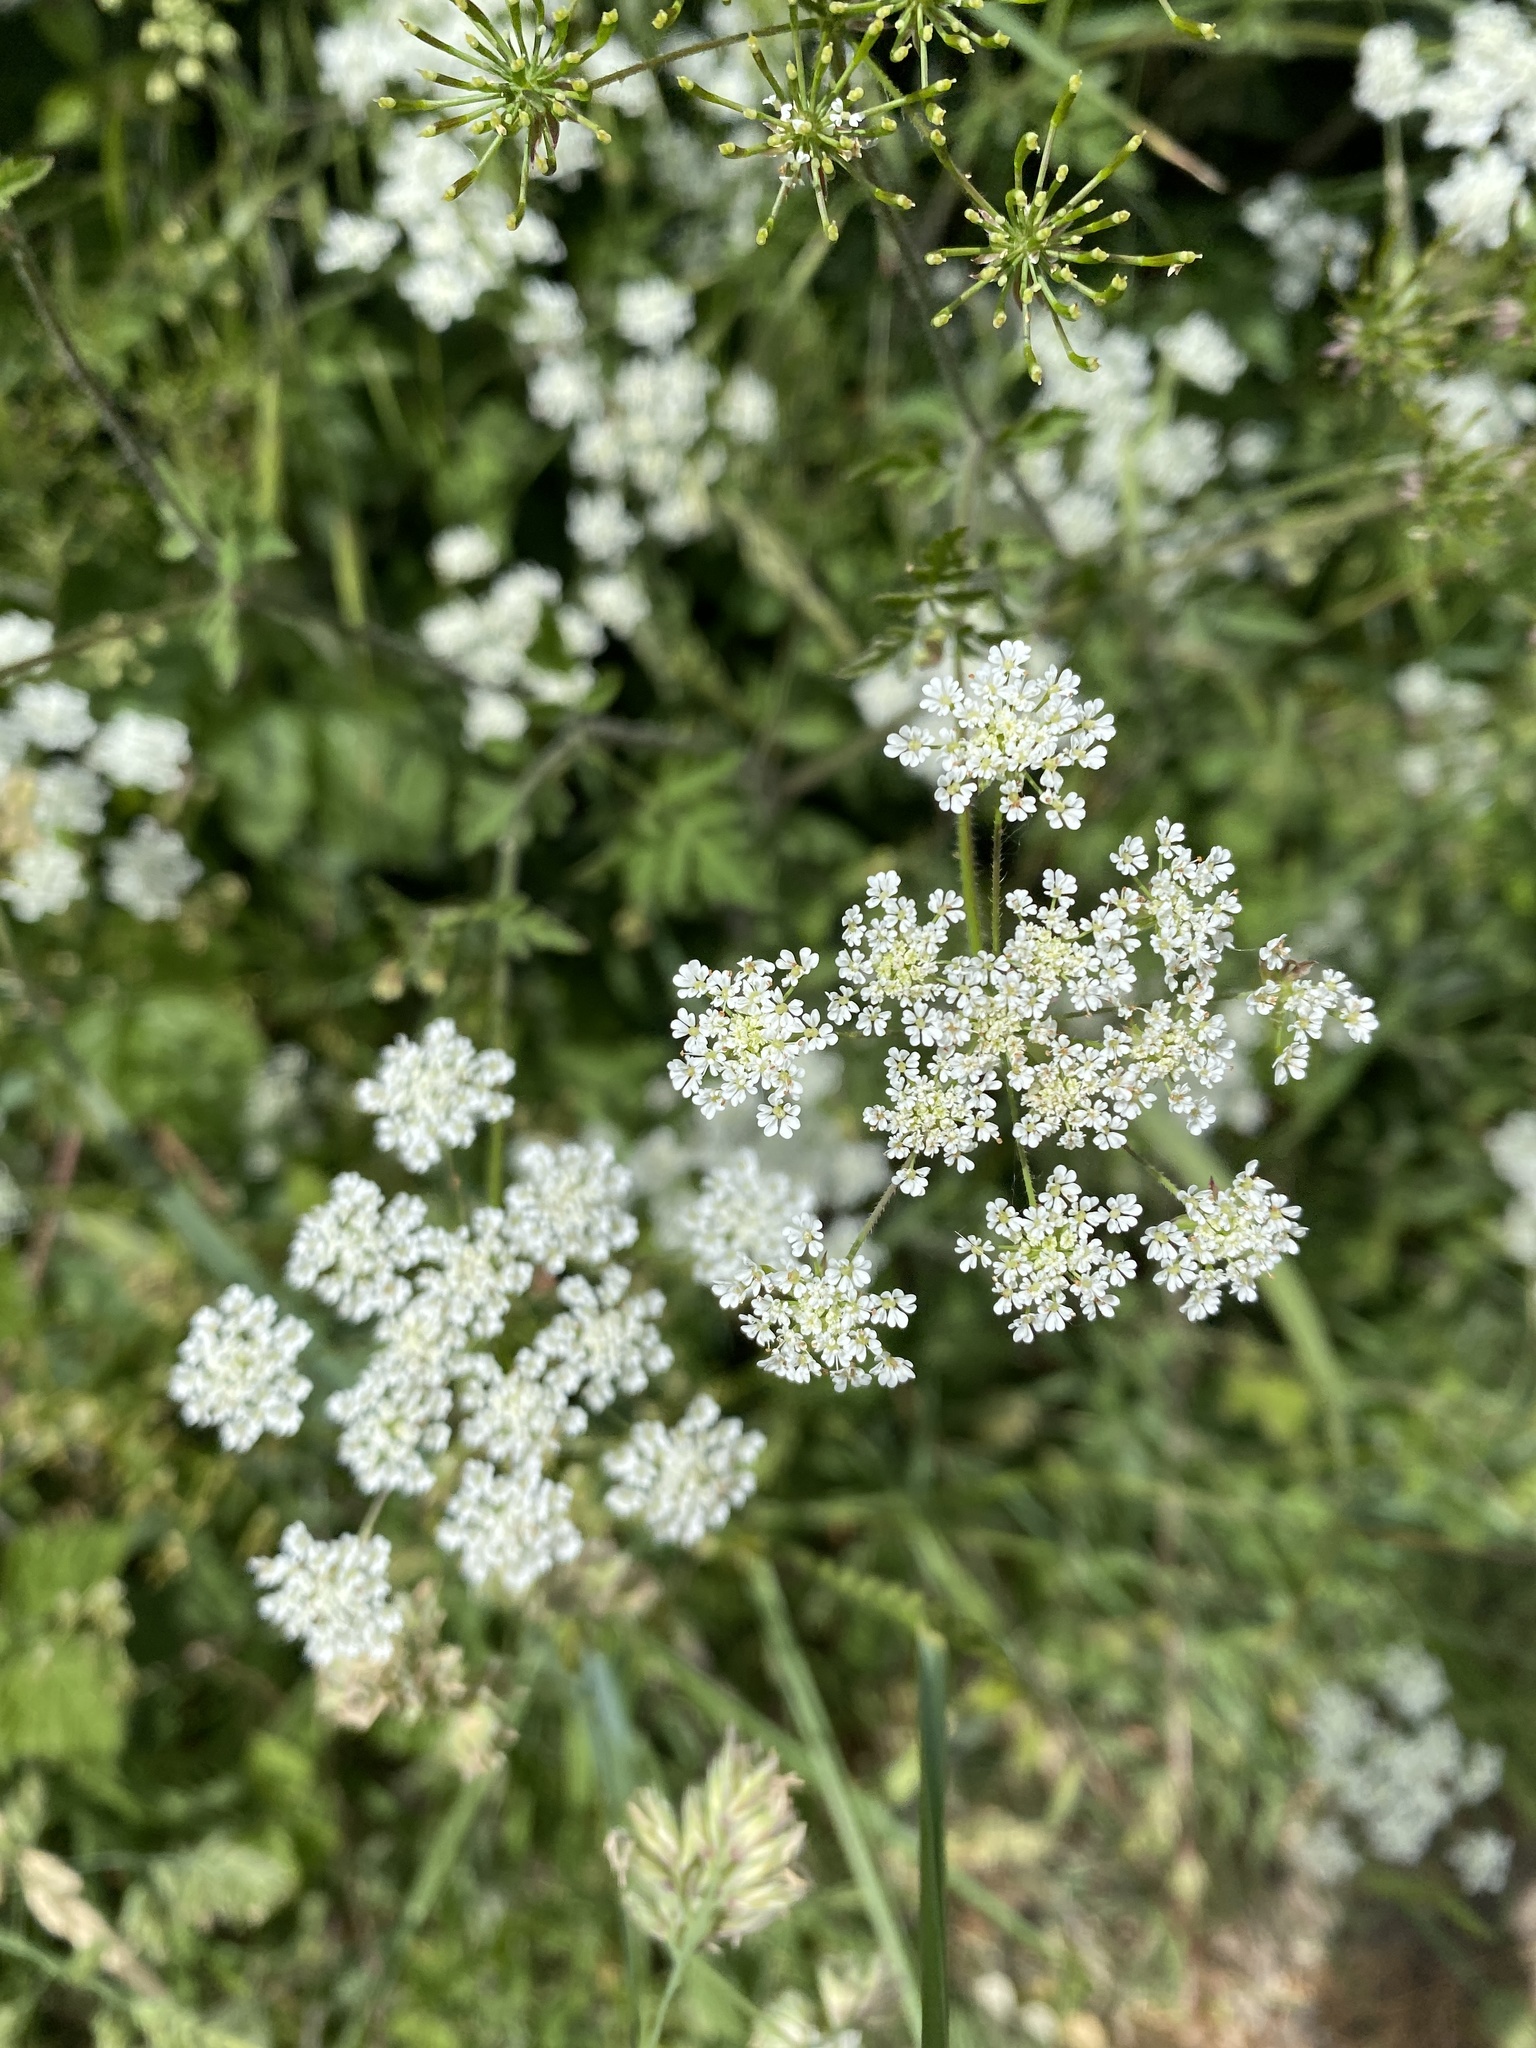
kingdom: Plantae
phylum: Tracheophyta
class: Magnoliopsida
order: Apiales
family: Apiaceae
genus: Chaerophyllum
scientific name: Chaerophyllum temulum
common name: Rough chervil
